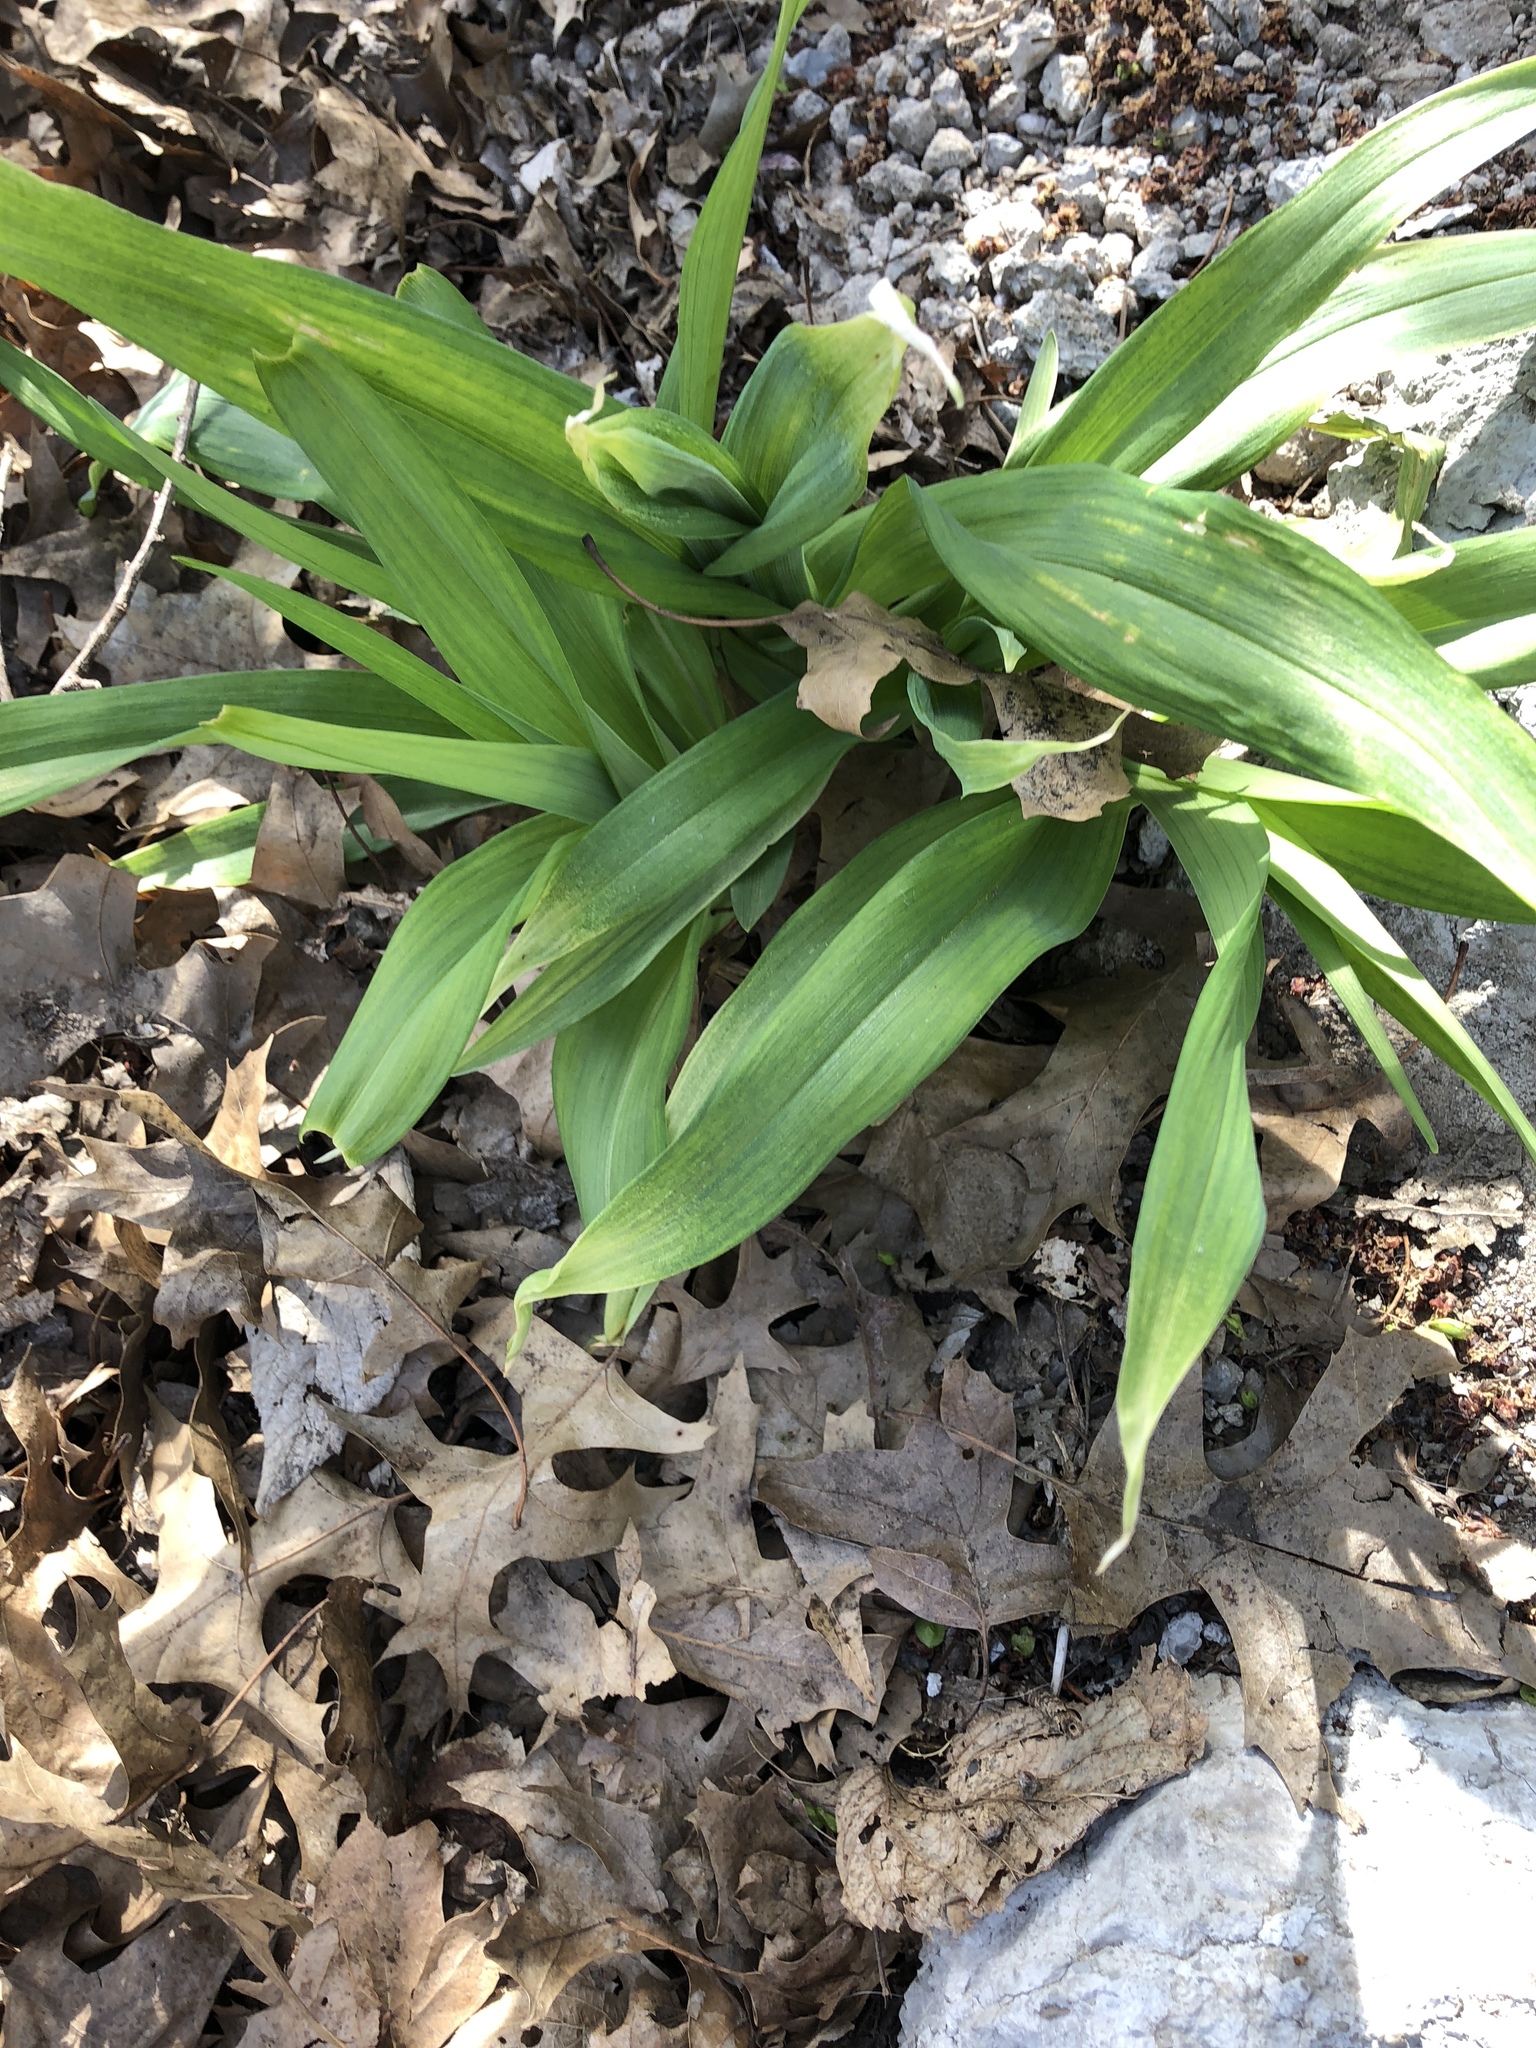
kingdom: Plantae
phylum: Tracheophyta
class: Liliopsida
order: Asparagales
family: Asphodelaceae
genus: Hemerocallis
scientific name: Hemerocallis fulva
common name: Orange day-lily
